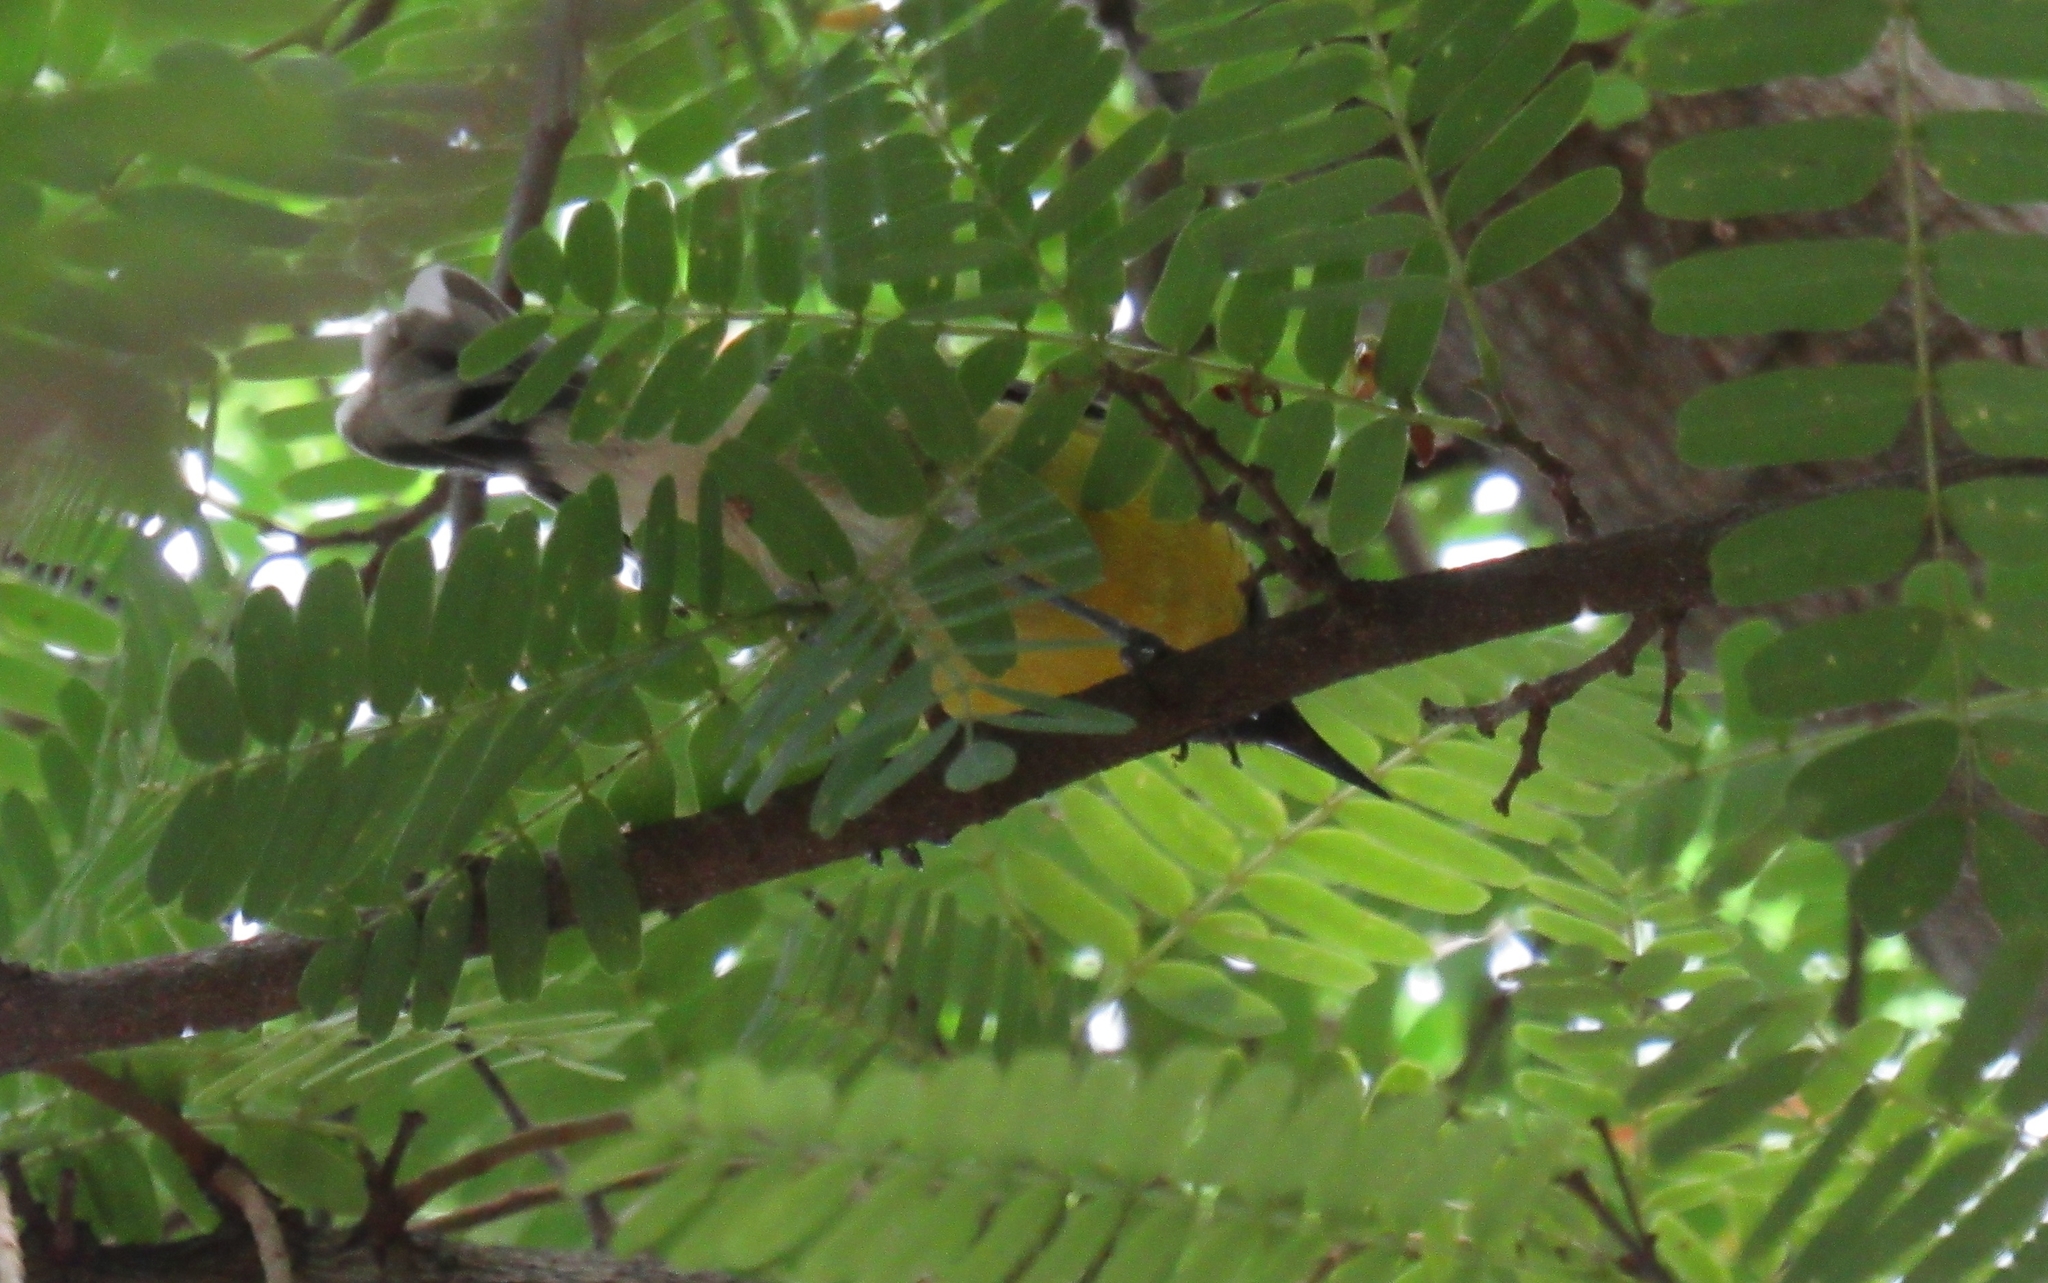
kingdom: Animalia
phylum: Chordata
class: Aves
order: Passeriformes
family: Thraupidae
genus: Coereba
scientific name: Coereba flaveola
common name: Bananaquit
